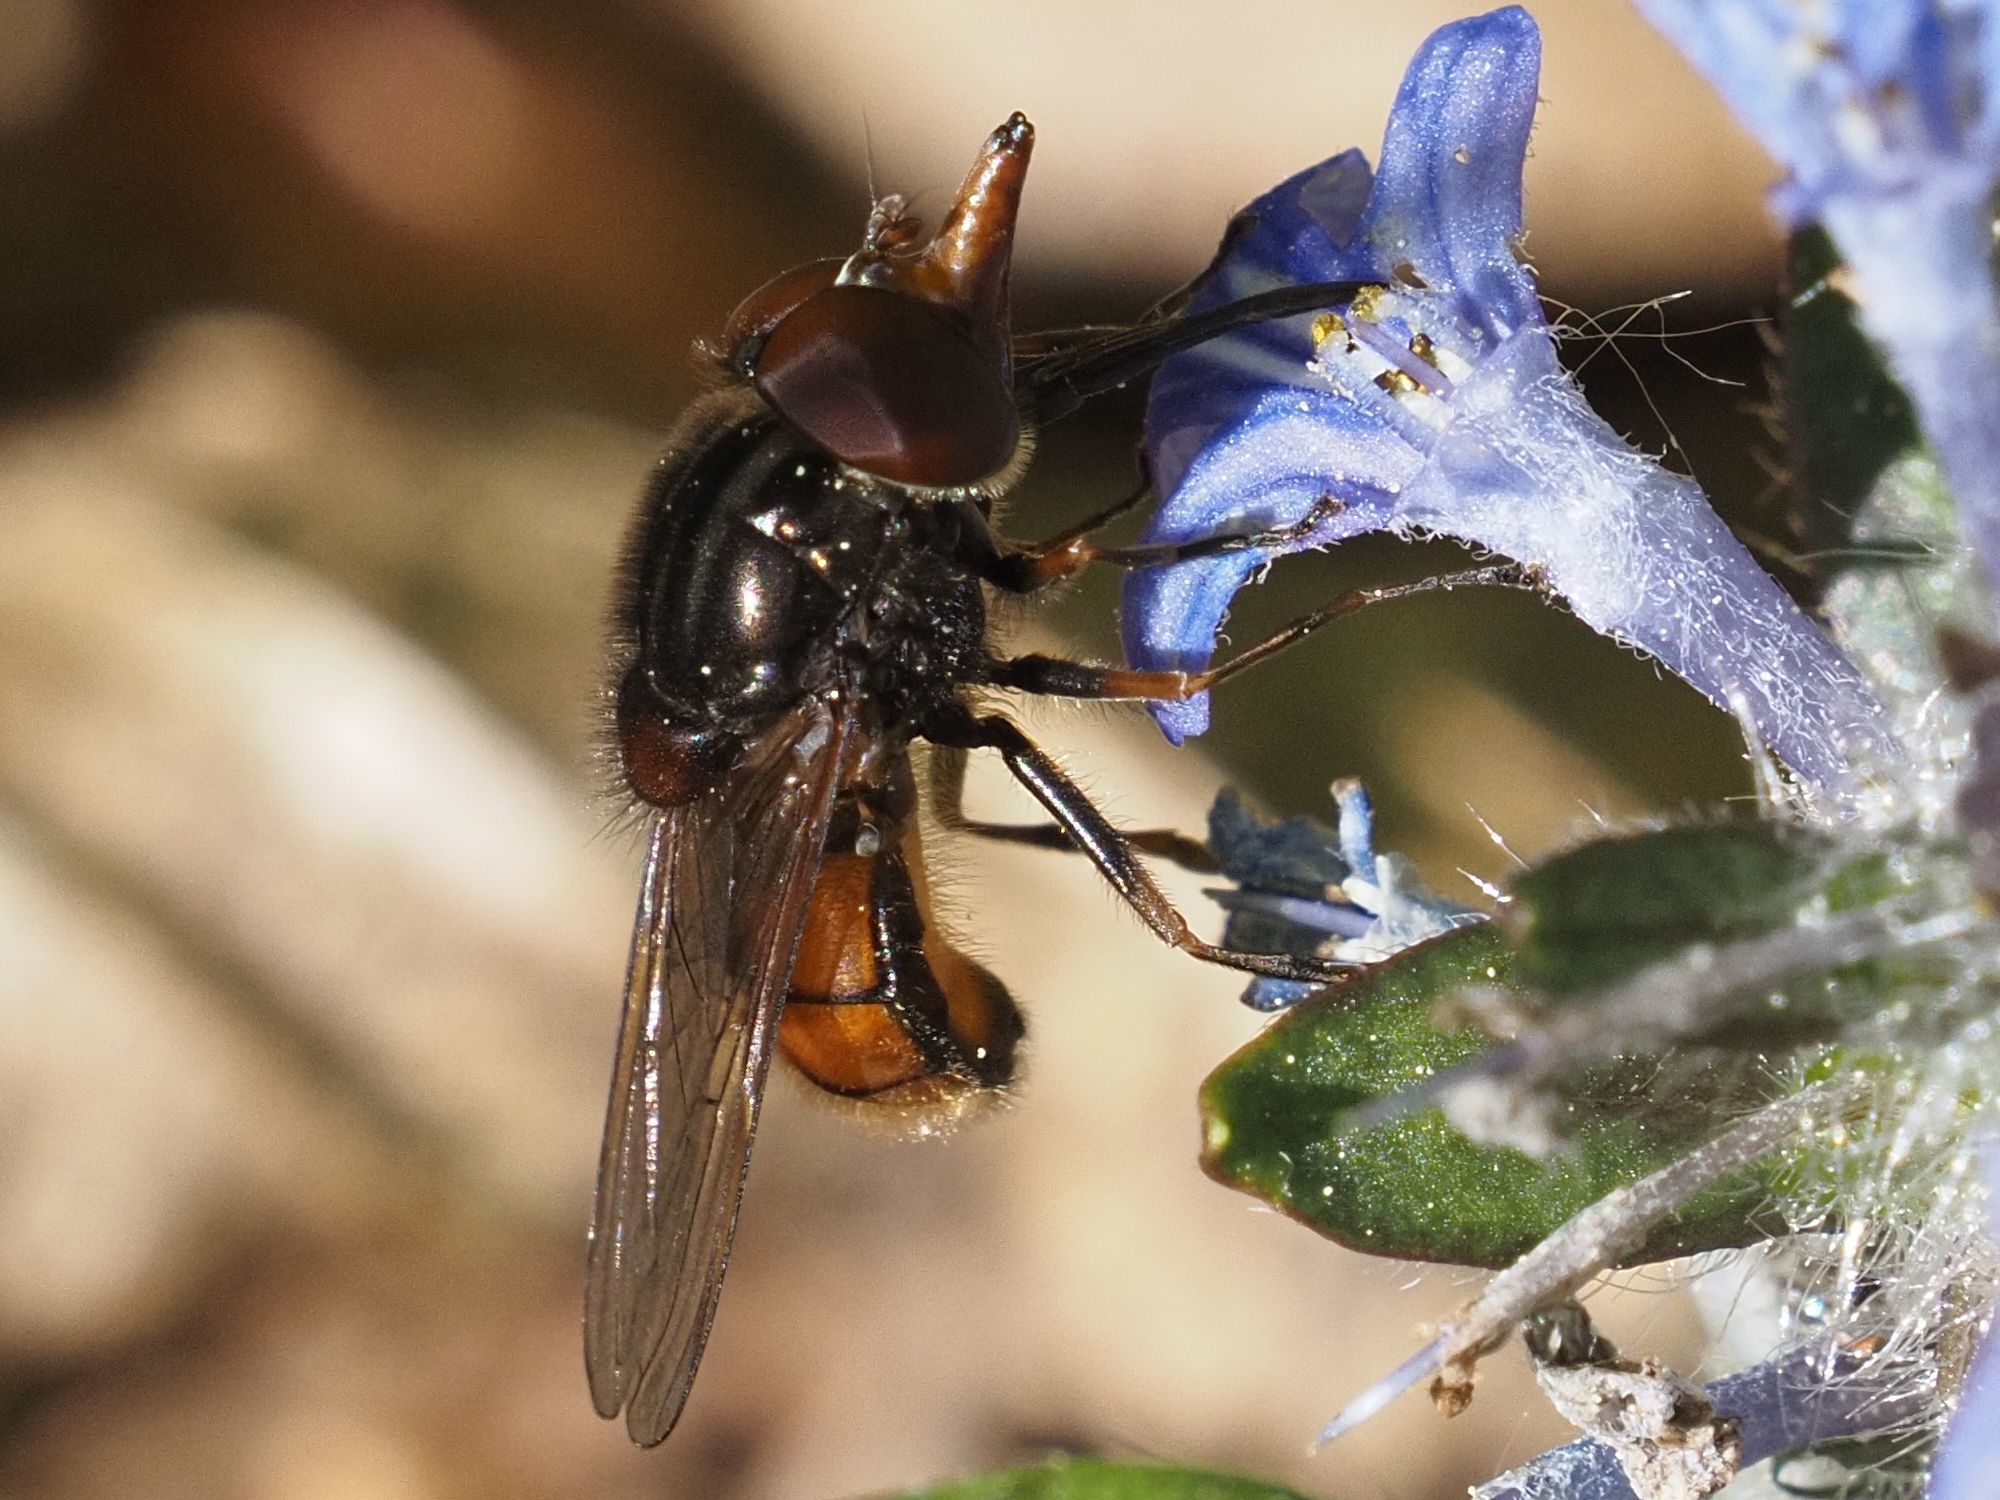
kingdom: Animalia
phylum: Arthropoda
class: Insecta
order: Diptera
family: Syrphidae
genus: Rhingia
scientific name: Rhingia campestris
